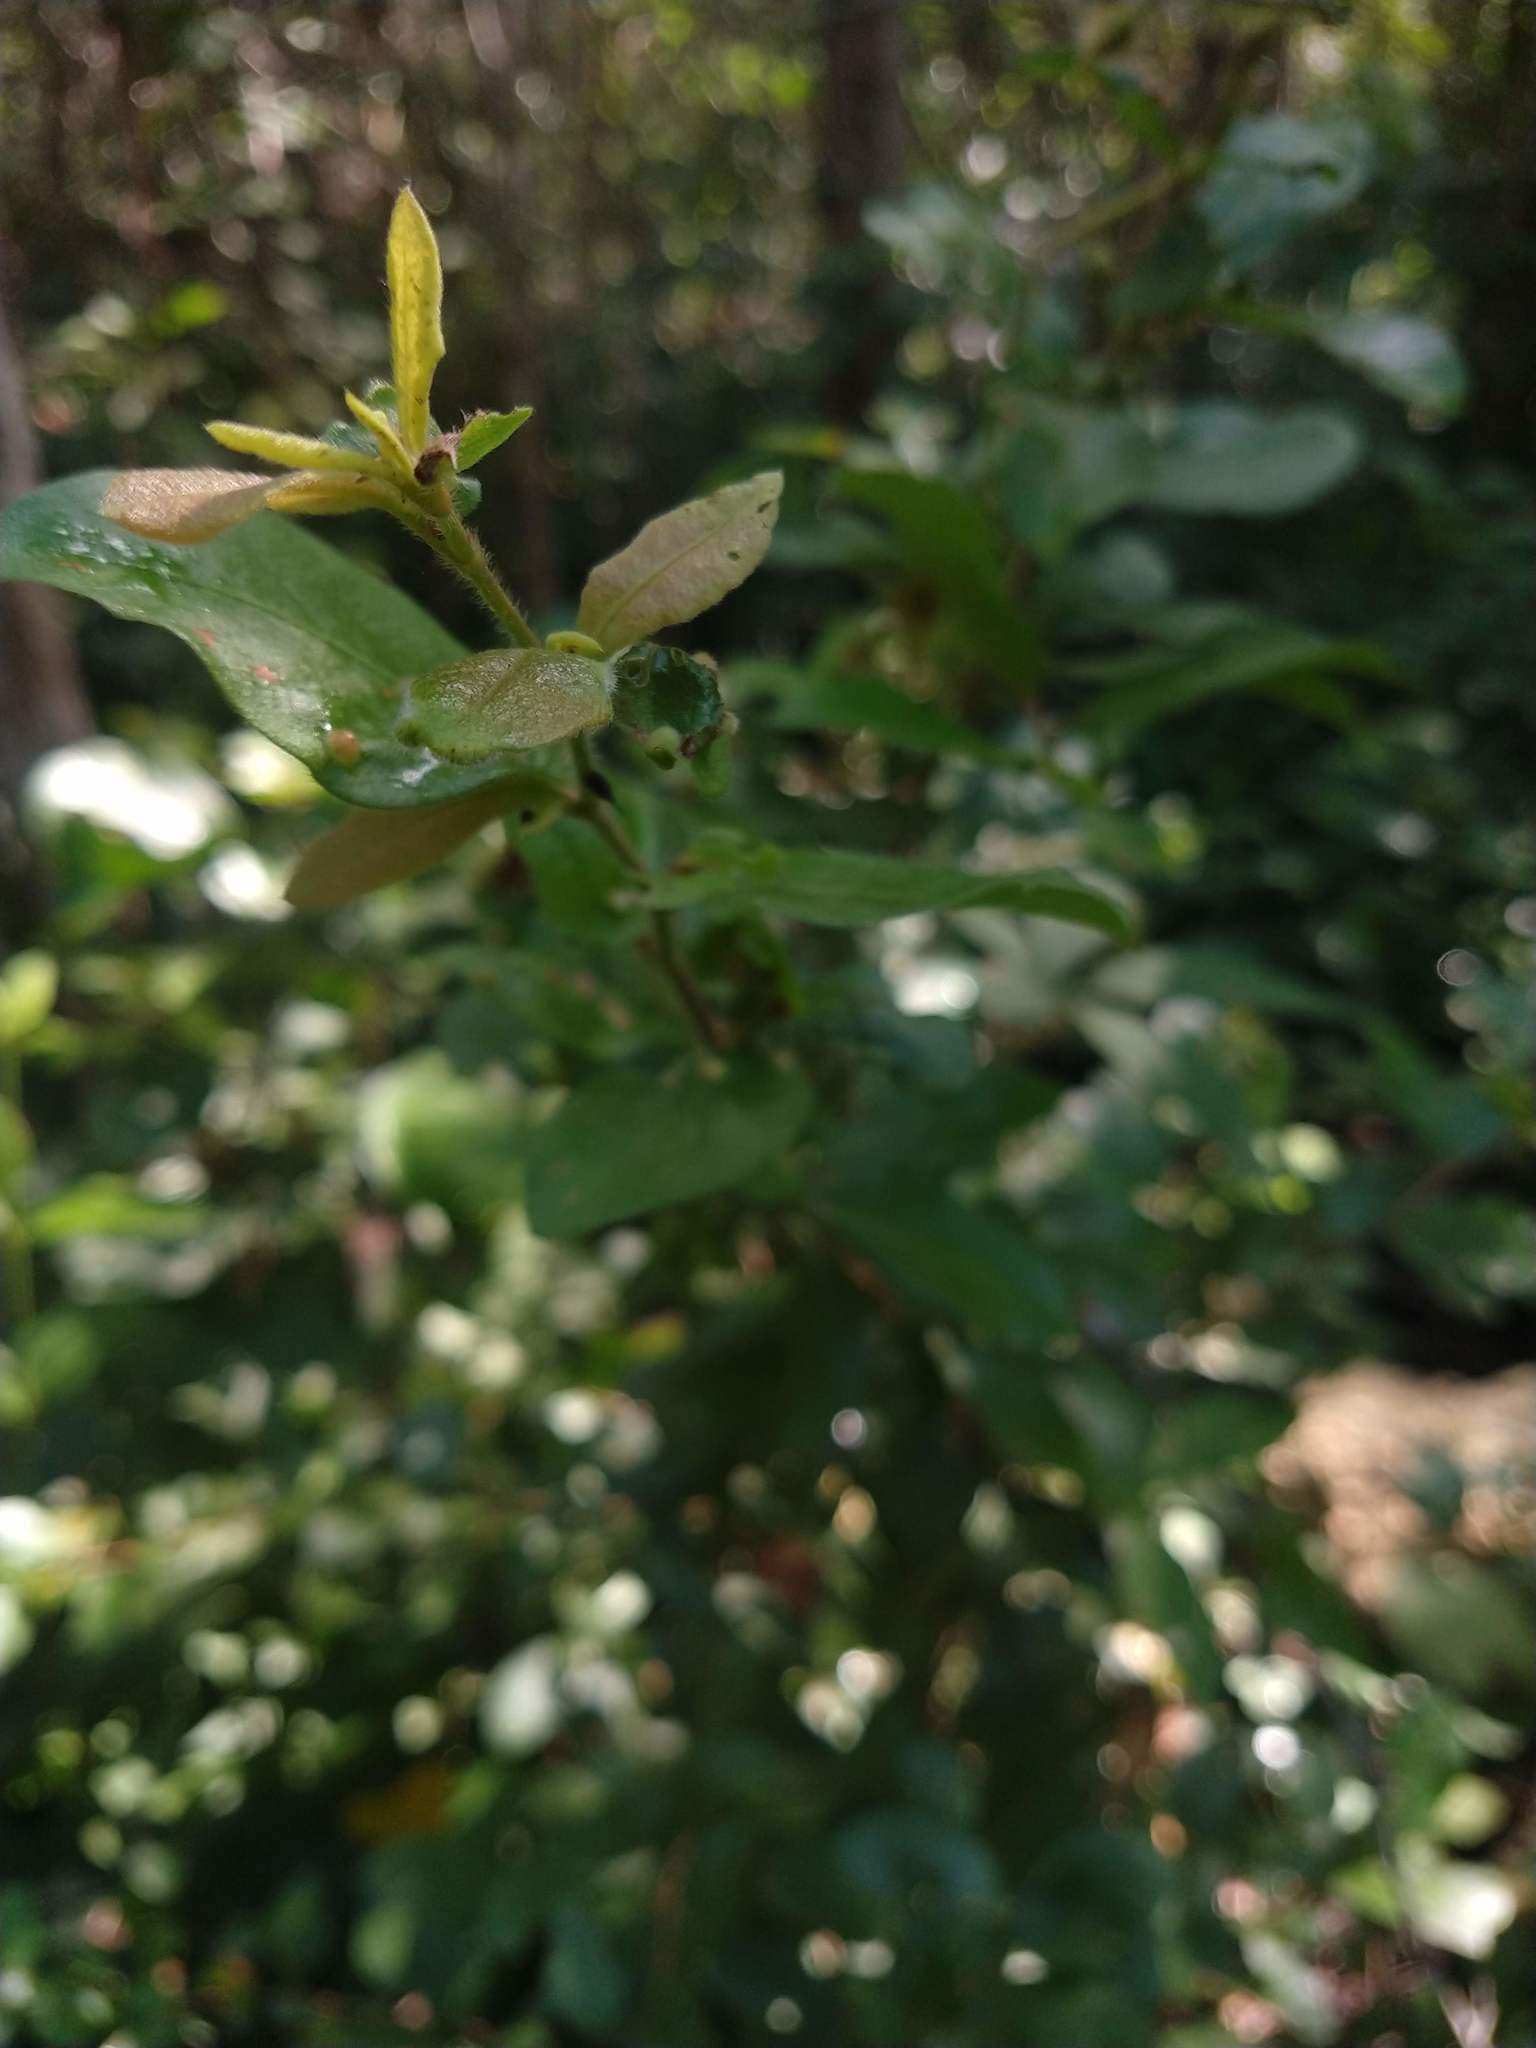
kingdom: Plantae
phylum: Tracheophyta
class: Magnoliopsida
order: Solanales
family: Convolvulaceae
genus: Distimake
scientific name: Distimake aegyptius
